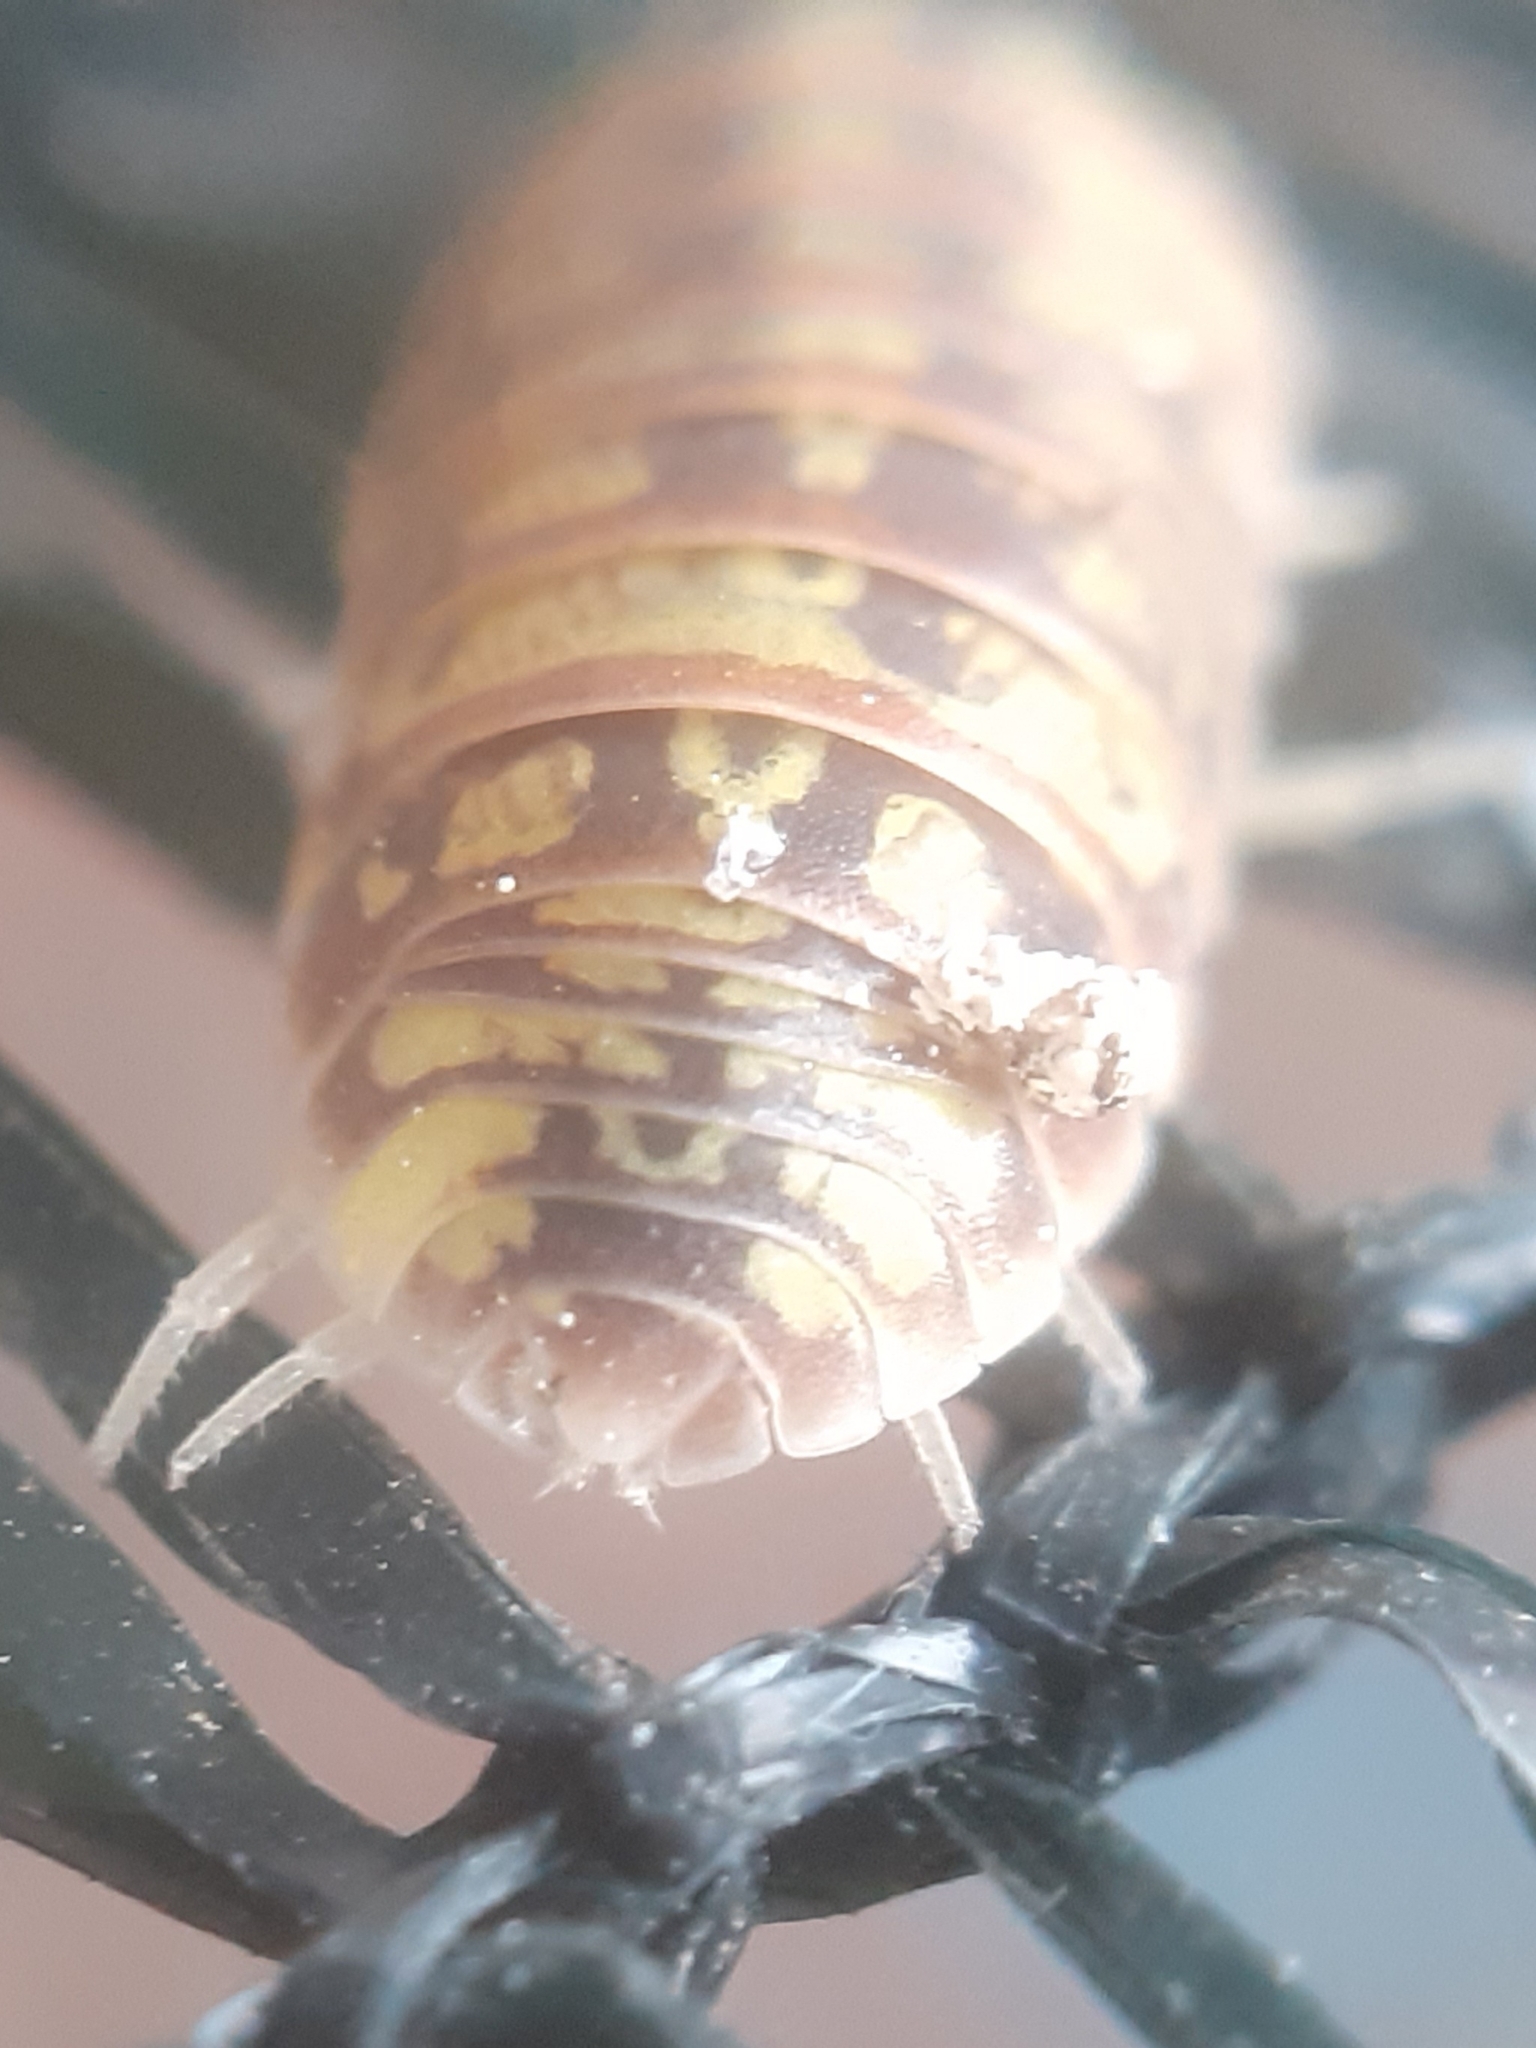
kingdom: Animalia
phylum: Arthropoda
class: Malacostraca
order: Isopoda
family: Armadillidiidae
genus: Armadillidium
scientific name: Armadillidium versicolor
